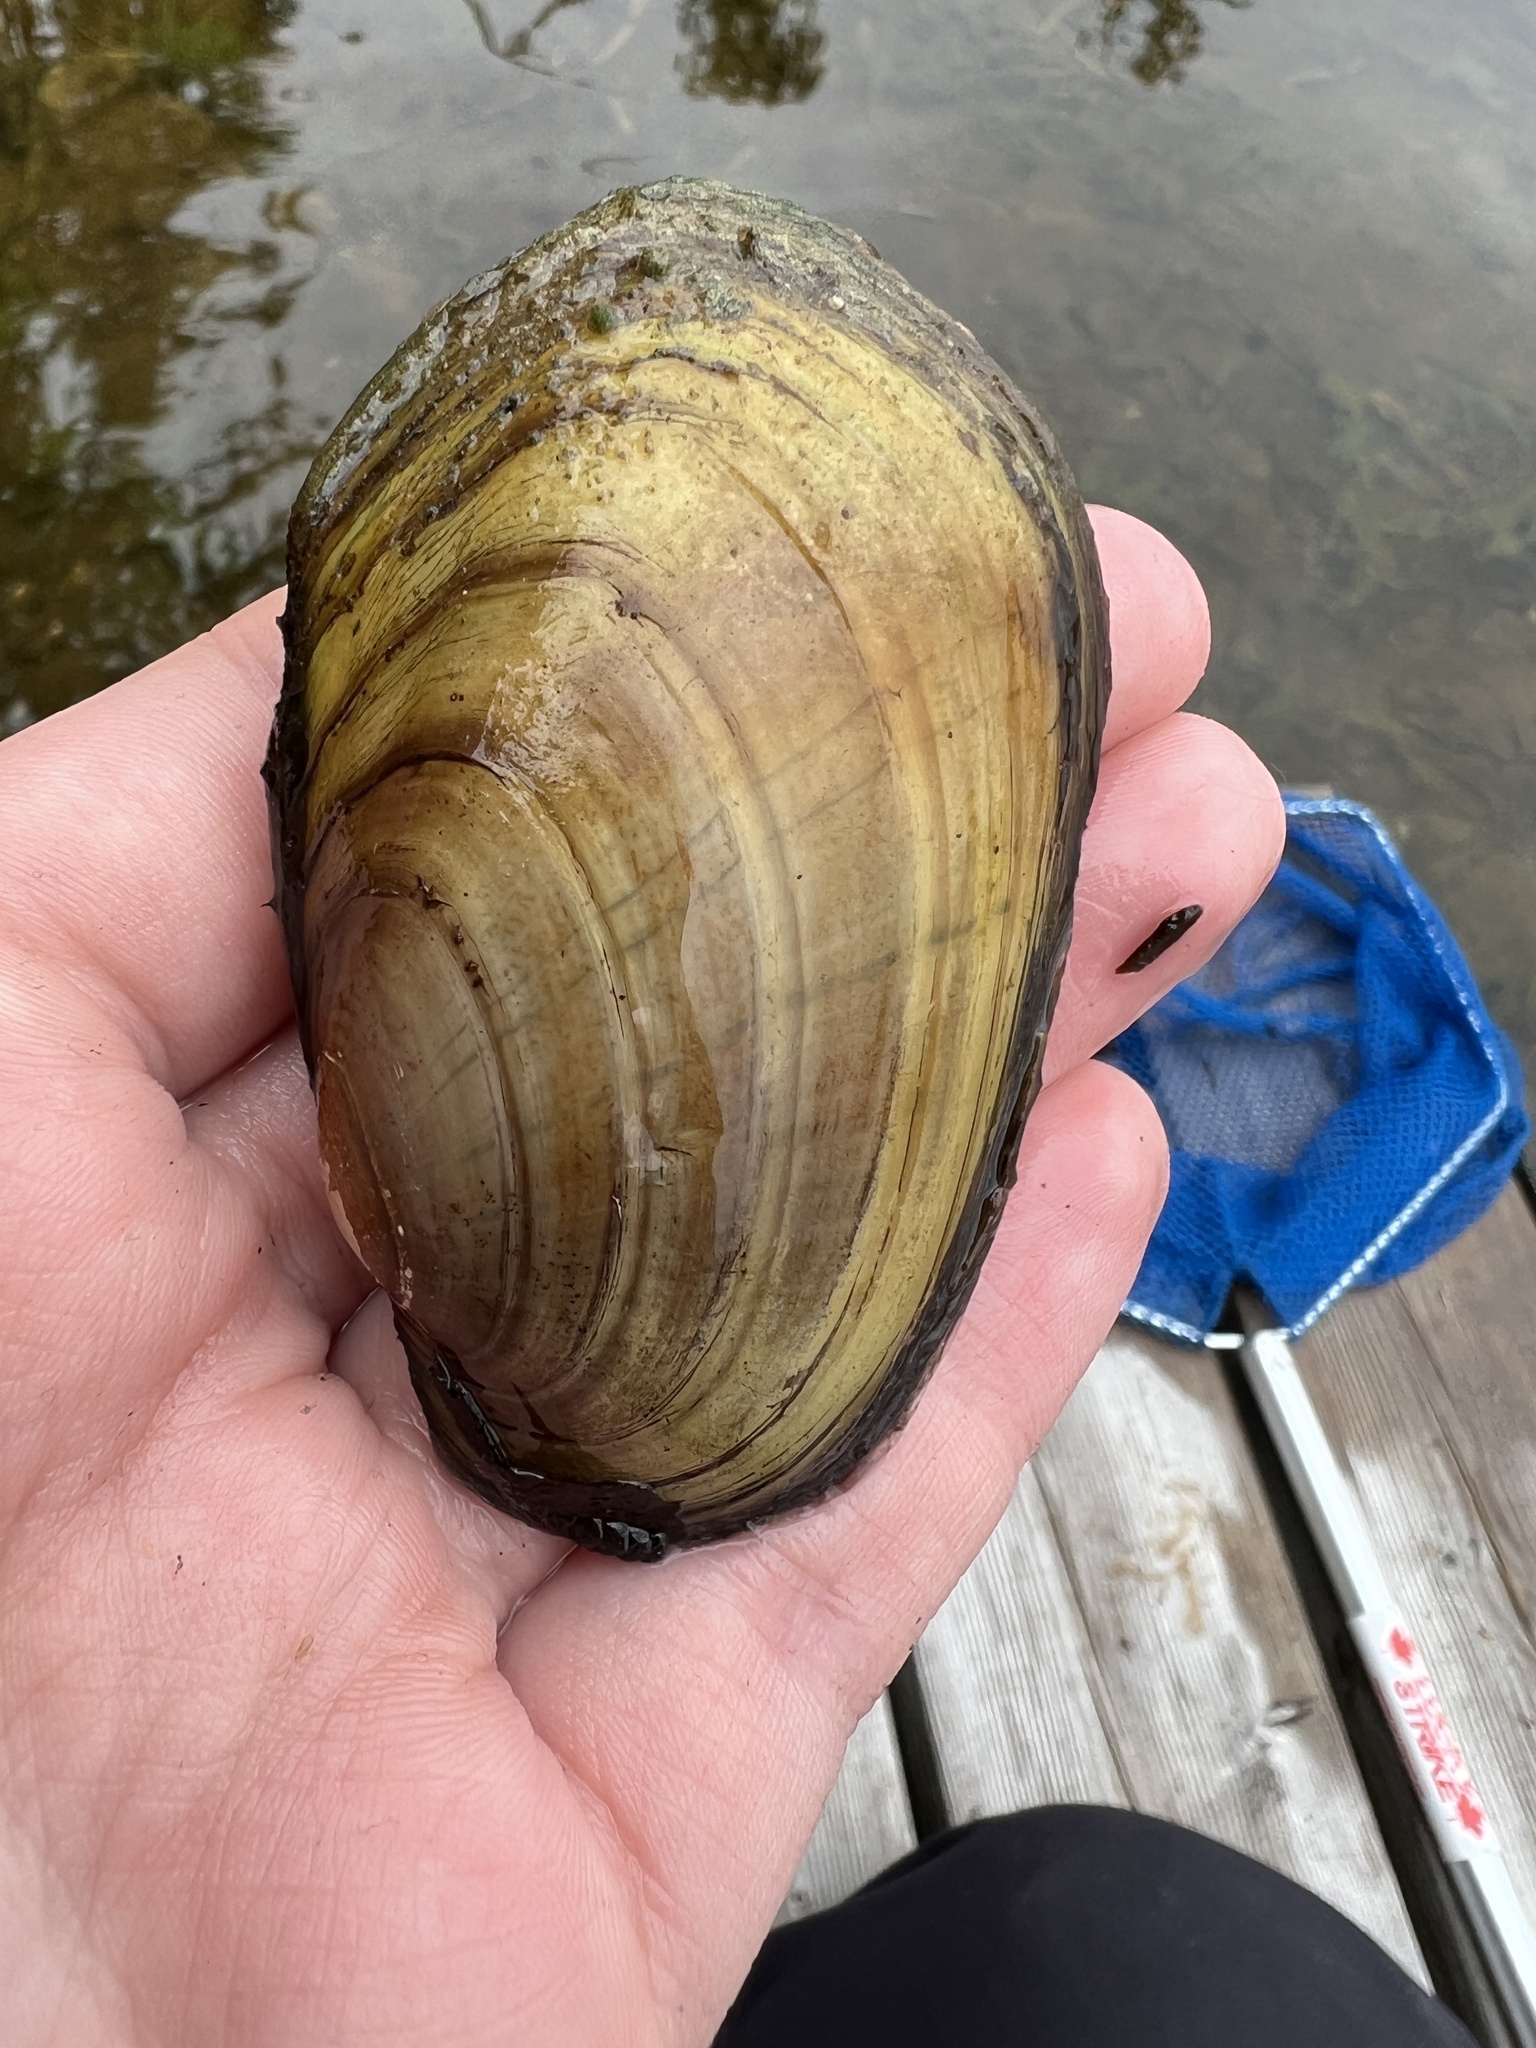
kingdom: Animalia
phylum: Mollusca
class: Bivalvia
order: Unionida
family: Unionidae
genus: Lampsilis
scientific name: Lampsilis siliquoidea
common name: Fatmucket
